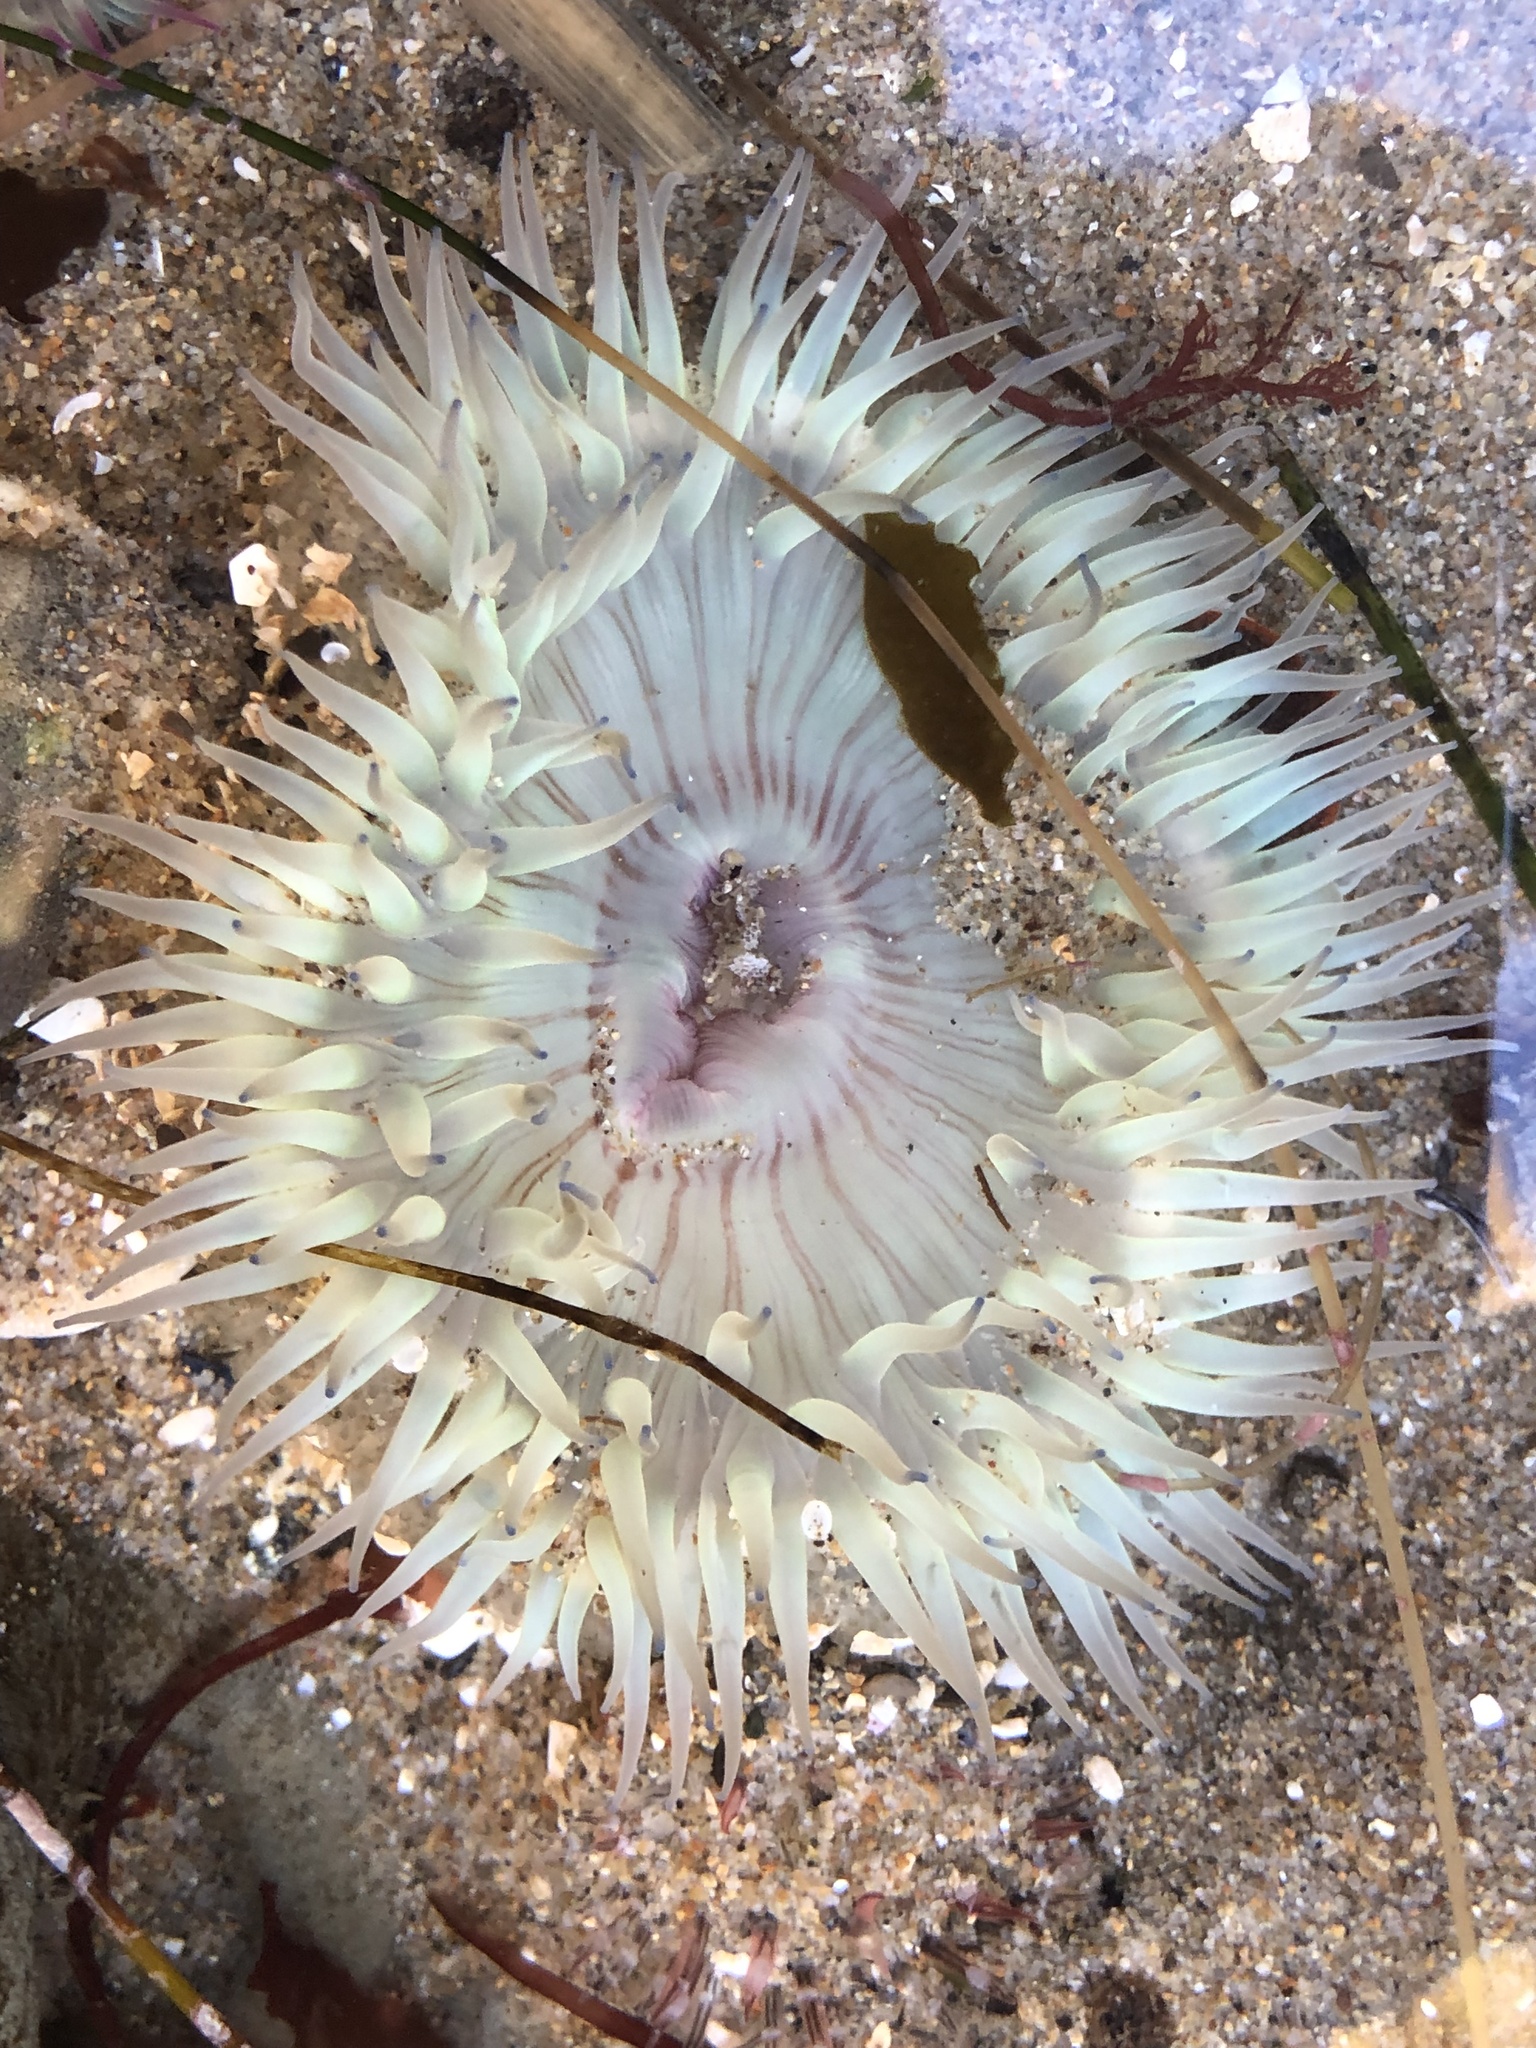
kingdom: Animalia
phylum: Cnidaria
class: Anthozoa
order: Actiniaria
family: Actiniidae
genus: Anthopleura
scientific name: Anthopleura sola
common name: Sun anemone
